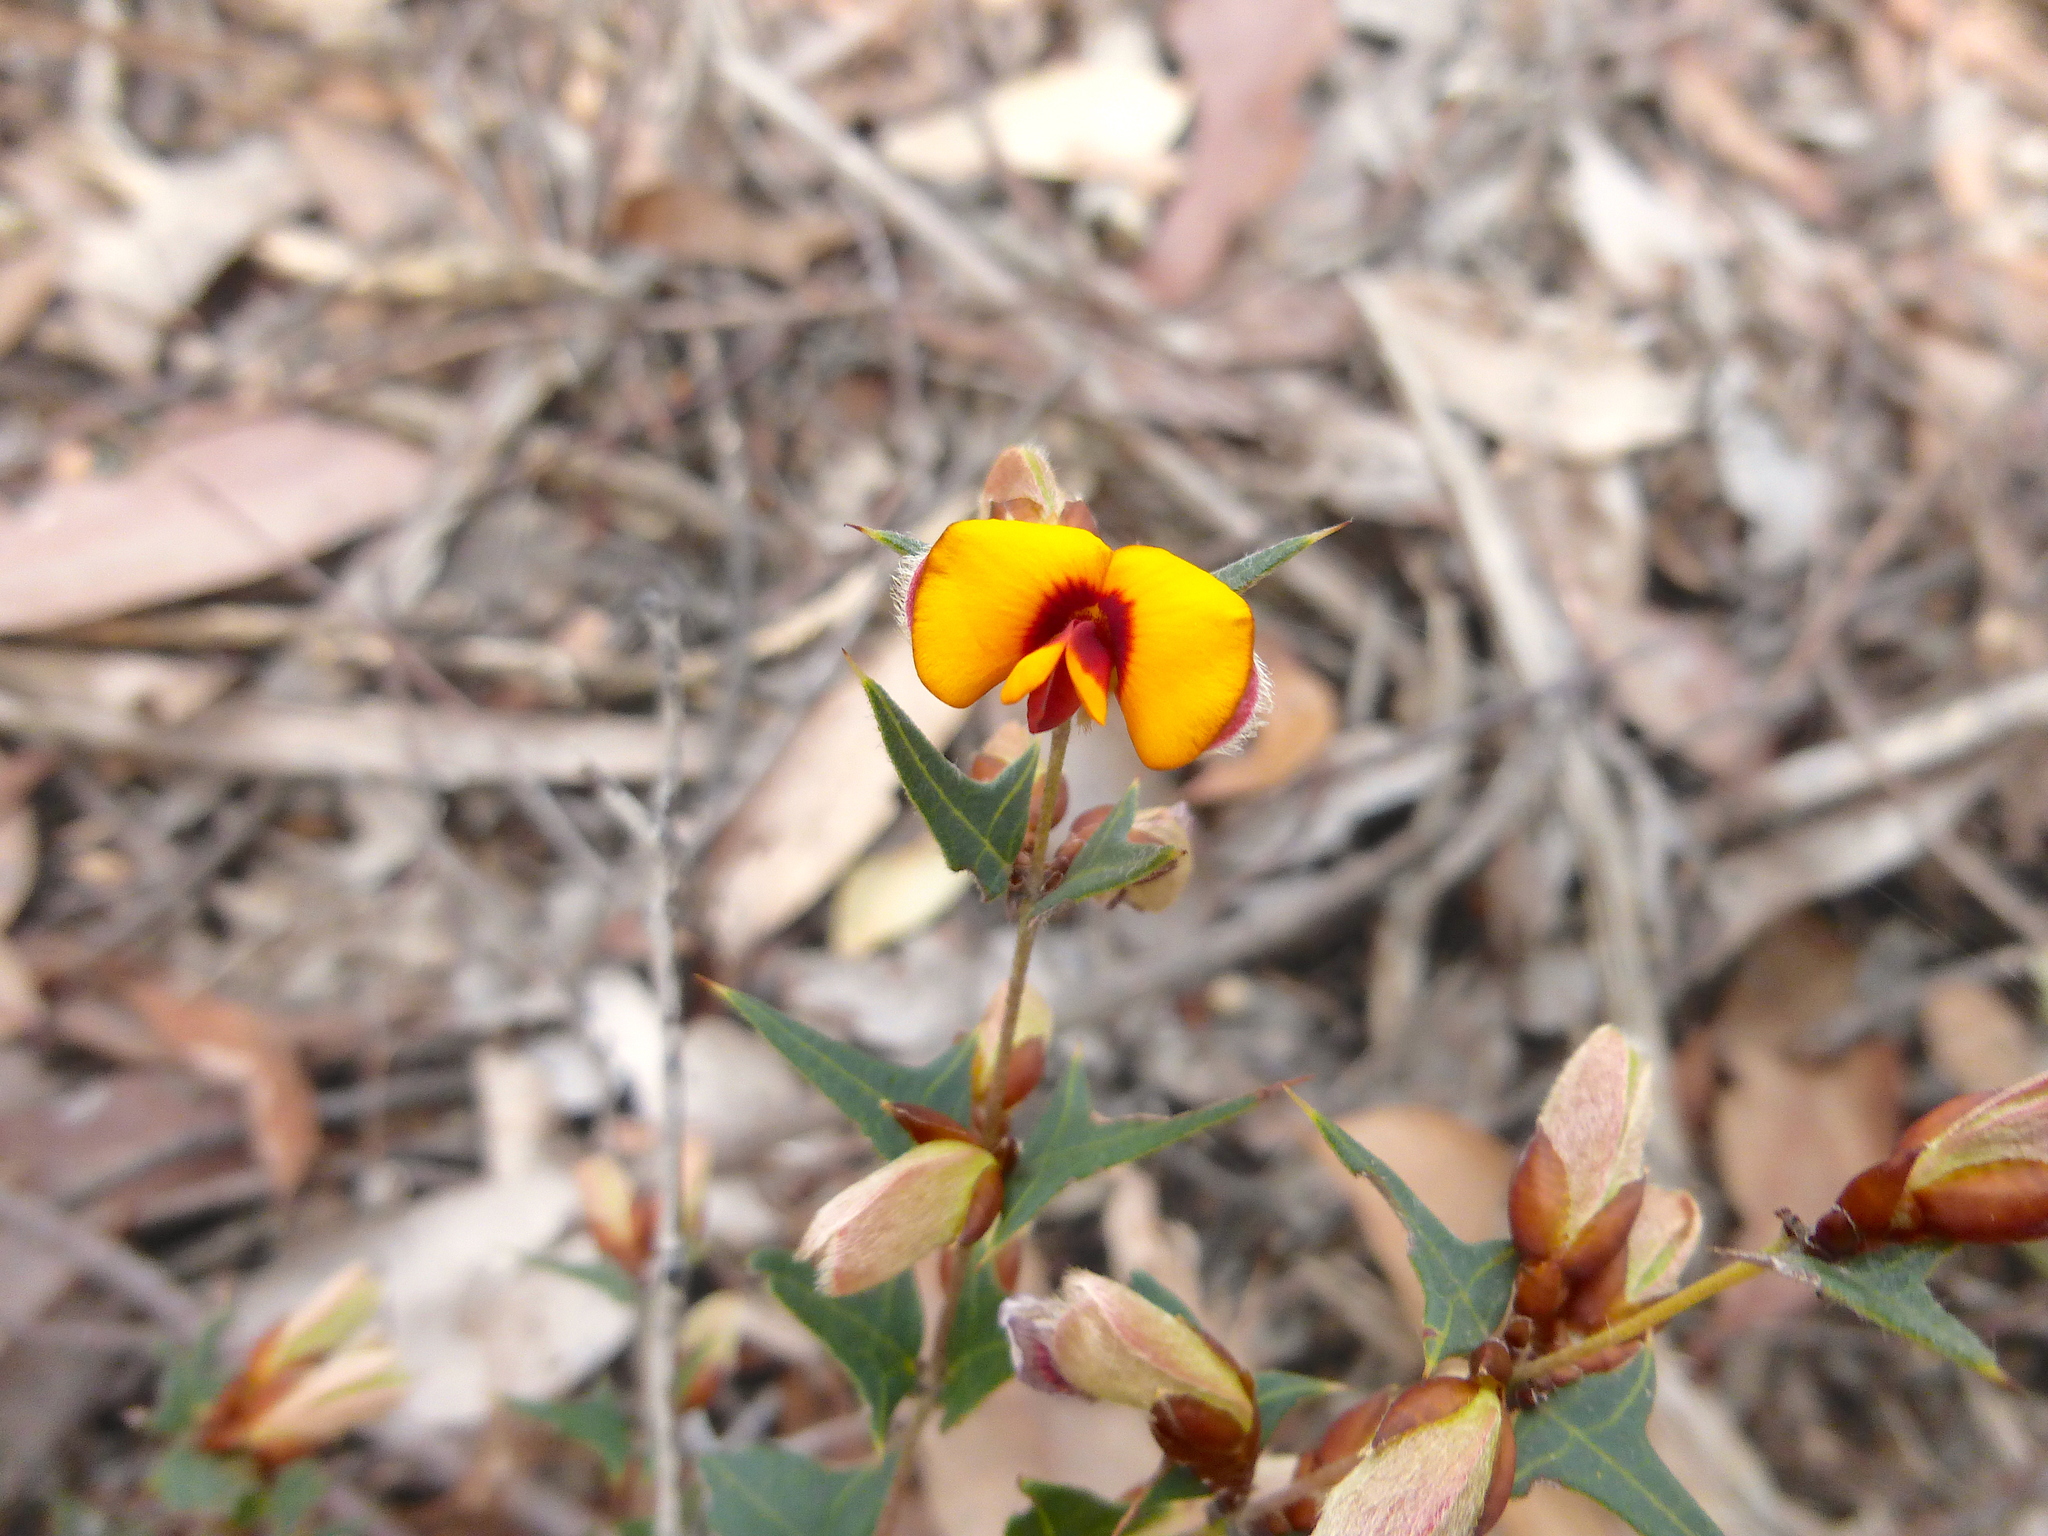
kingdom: Plantae
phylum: Tracheophyta
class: Magnoliopsida
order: Fabales
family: Fabaceae
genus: Platylobium
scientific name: Platylobium obtusangulum
